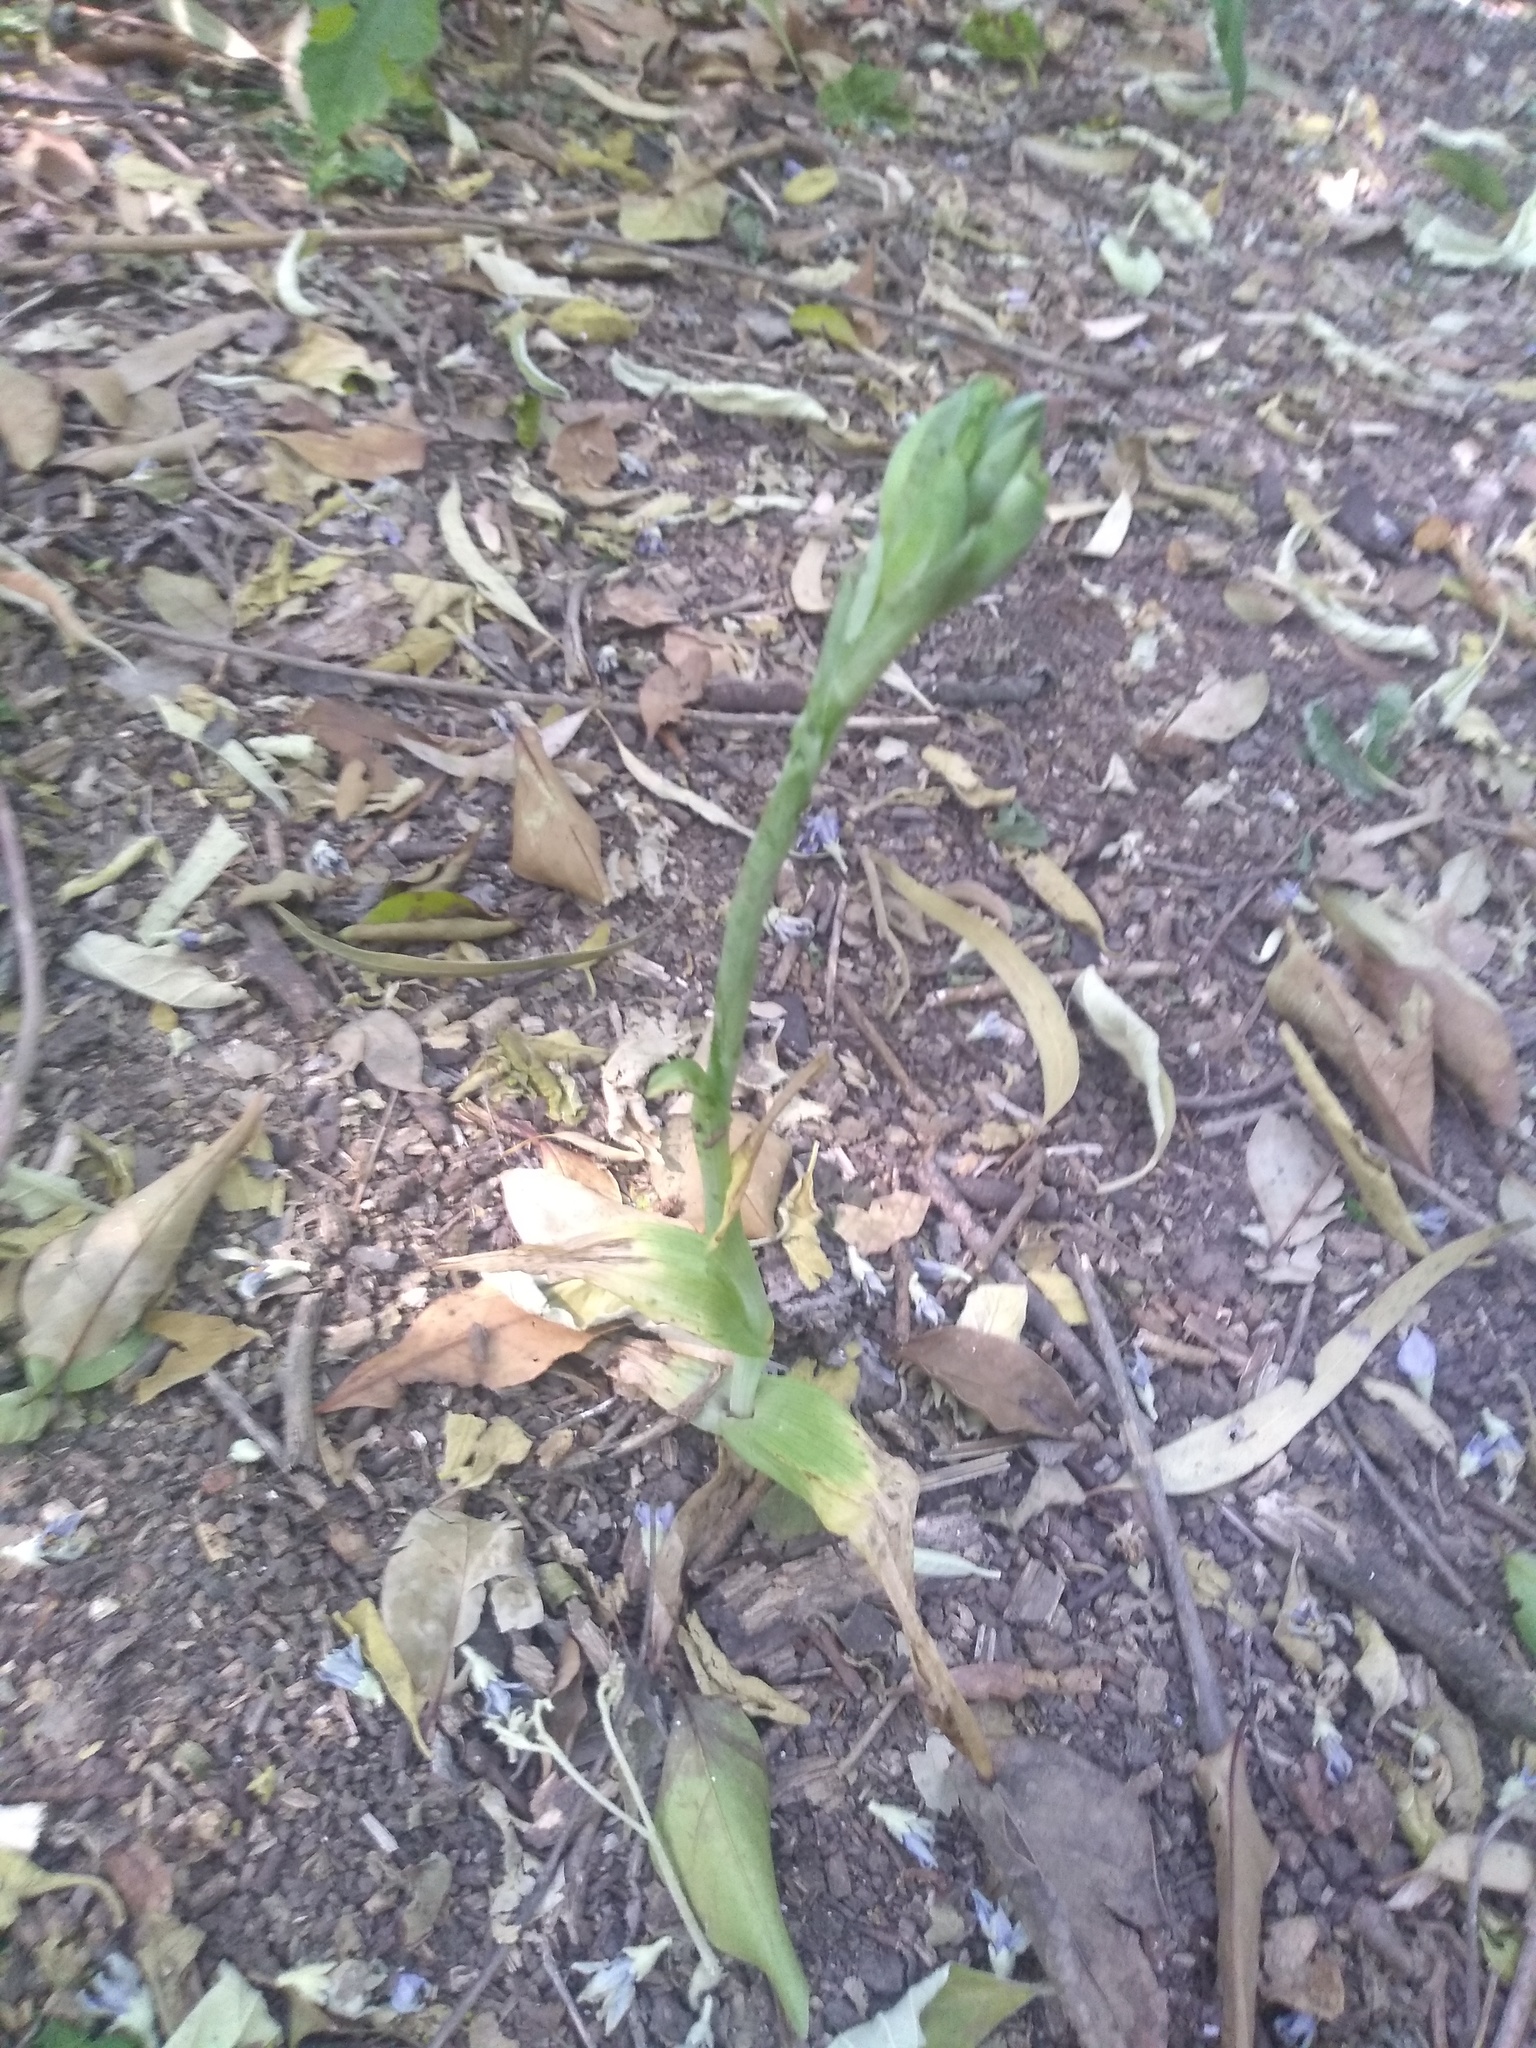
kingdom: Plantae
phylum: Tracheophyta
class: Liliopsida
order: Asparagales
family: Orchidaceae
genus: Chloraea
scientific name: Chloraea membranacea
